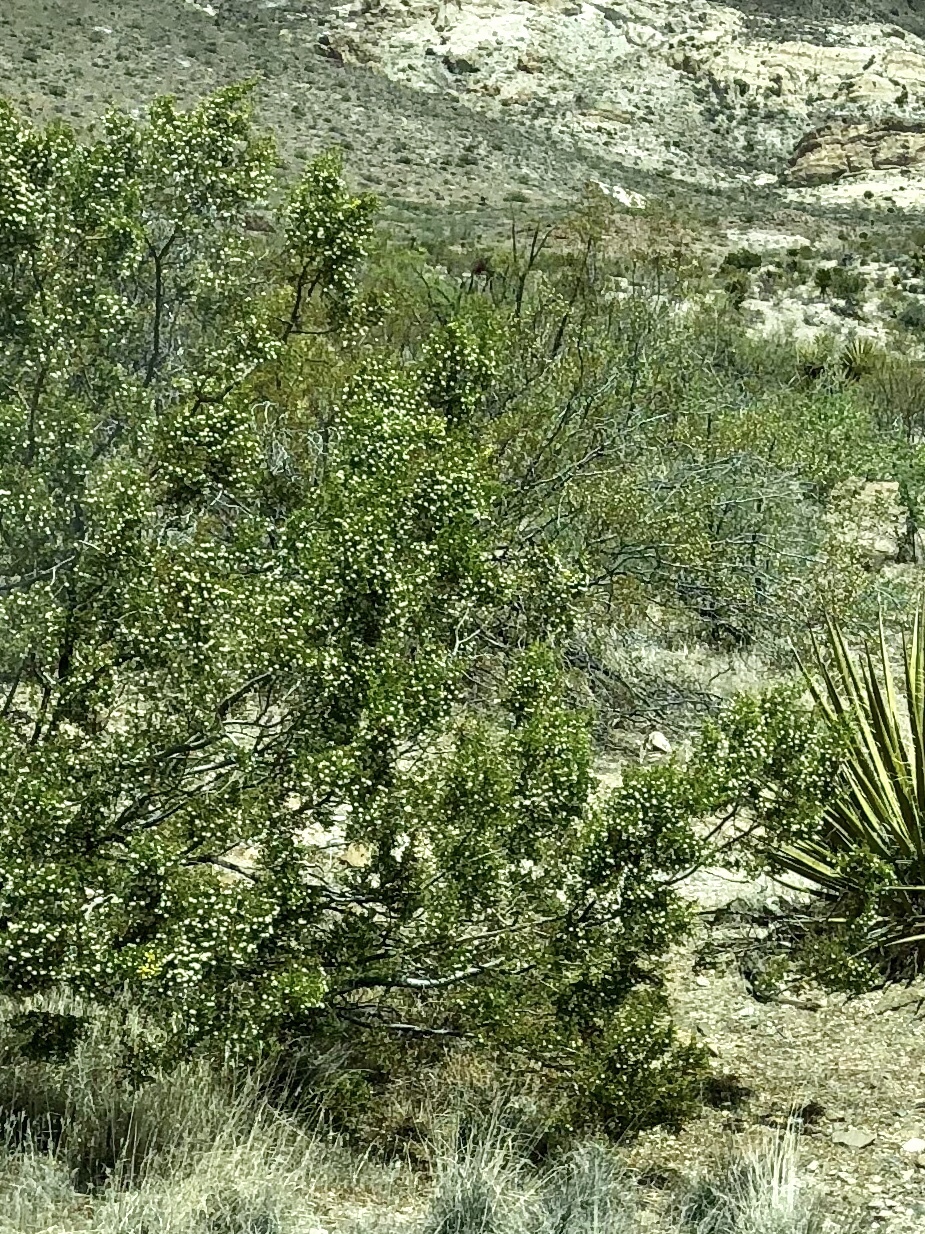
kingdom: Plantae
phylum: Tracheophyta
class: Magnoliopsida
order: Zygophyllales
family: Zygophyllaceae
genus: Larrea
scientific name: Larrea tridentata
